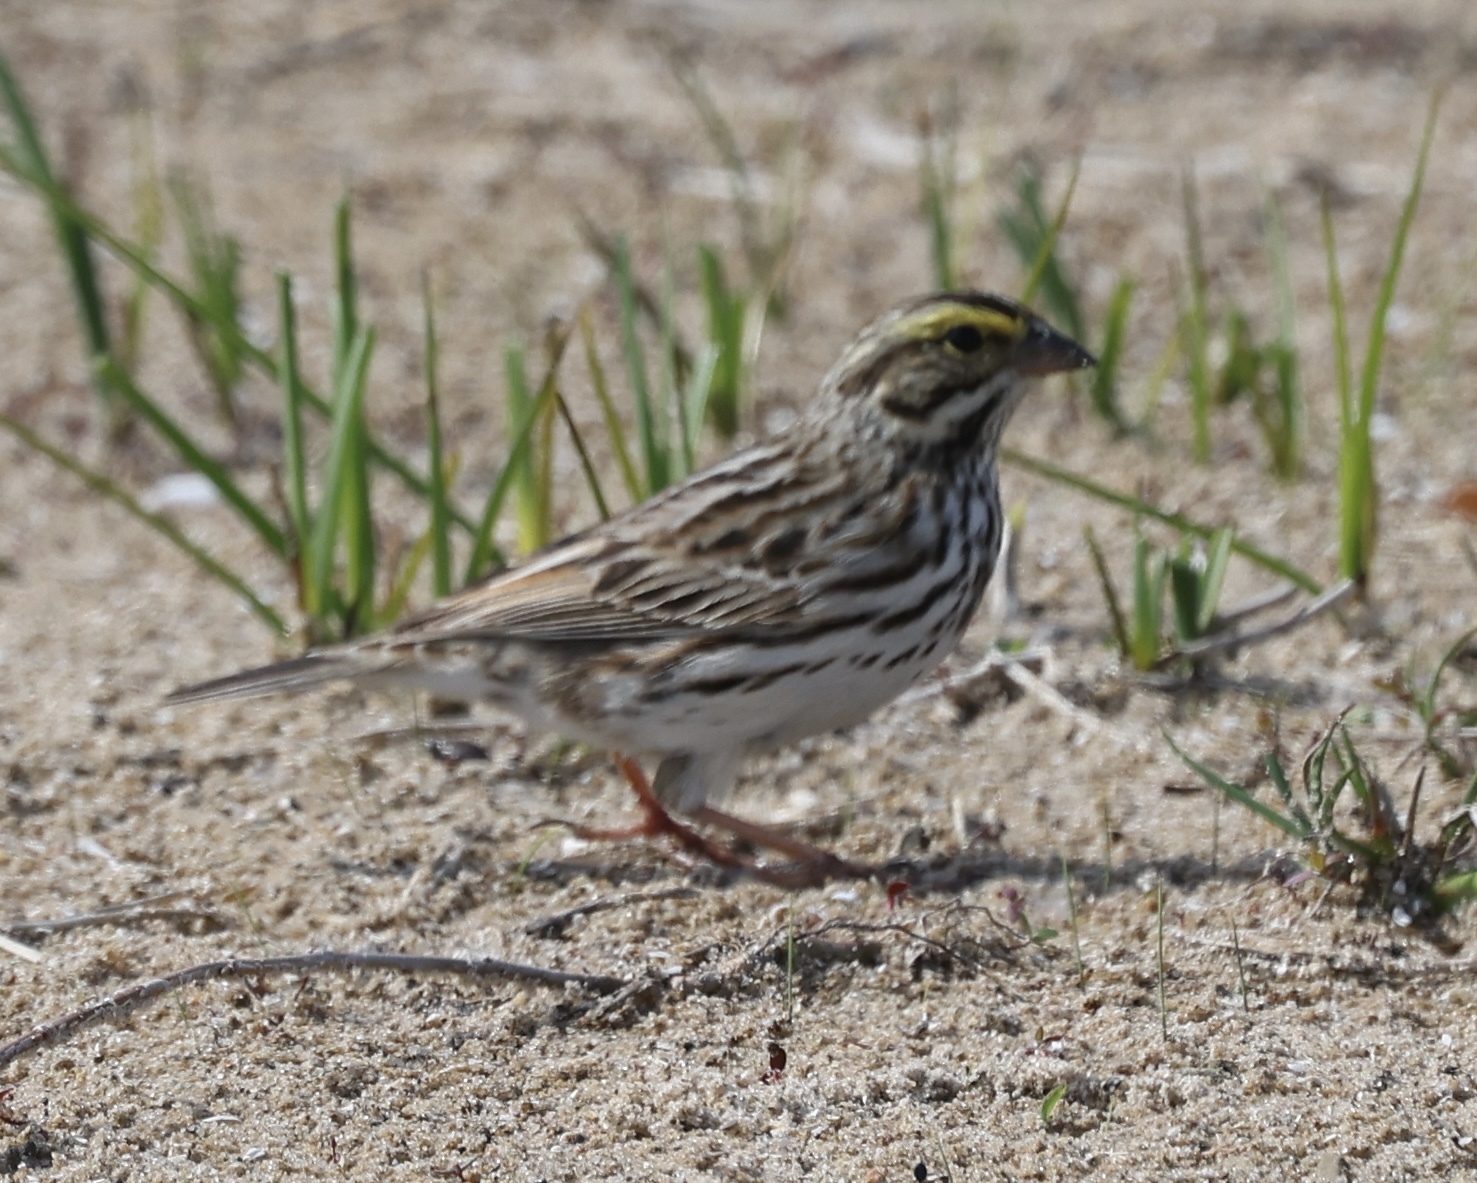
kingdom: Animalia
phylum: Chordata
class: Aves
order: Passeriformes
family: Passerellidae
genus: Passerculus
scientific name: Passerculus sandwichensis
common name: Savannah sparrow
